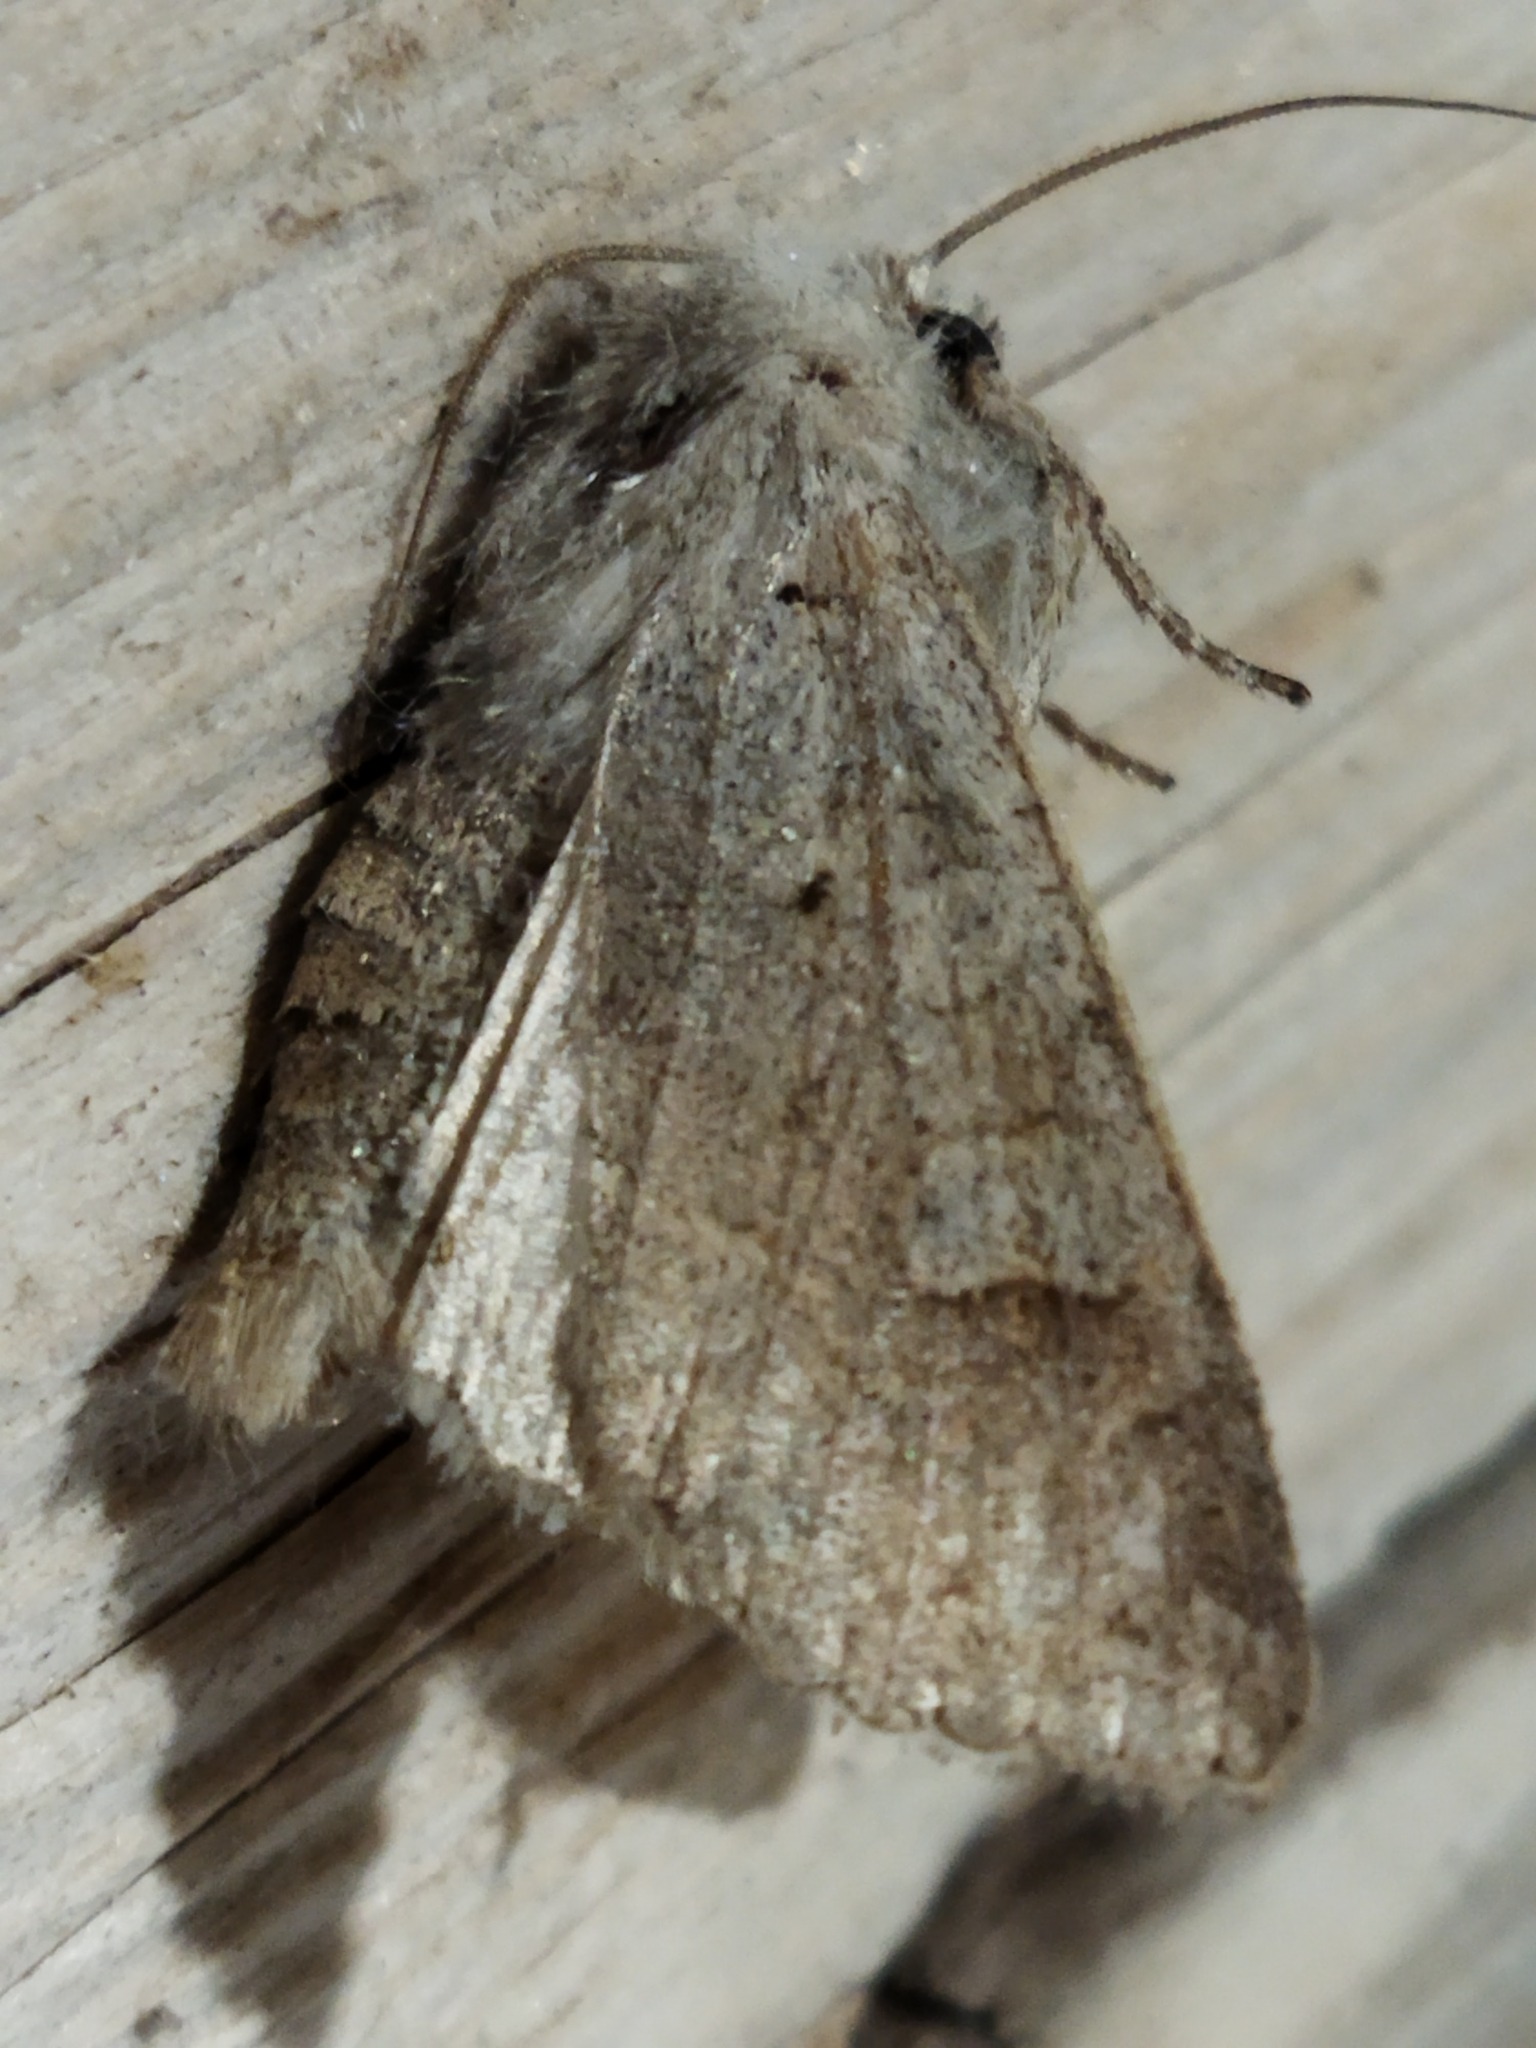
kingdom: Animalia
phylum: Arthropoda
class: Insecta
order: Lepidoptera
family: Noctuidae
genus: Ammoconia
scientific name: Ammoconia caecimacula
